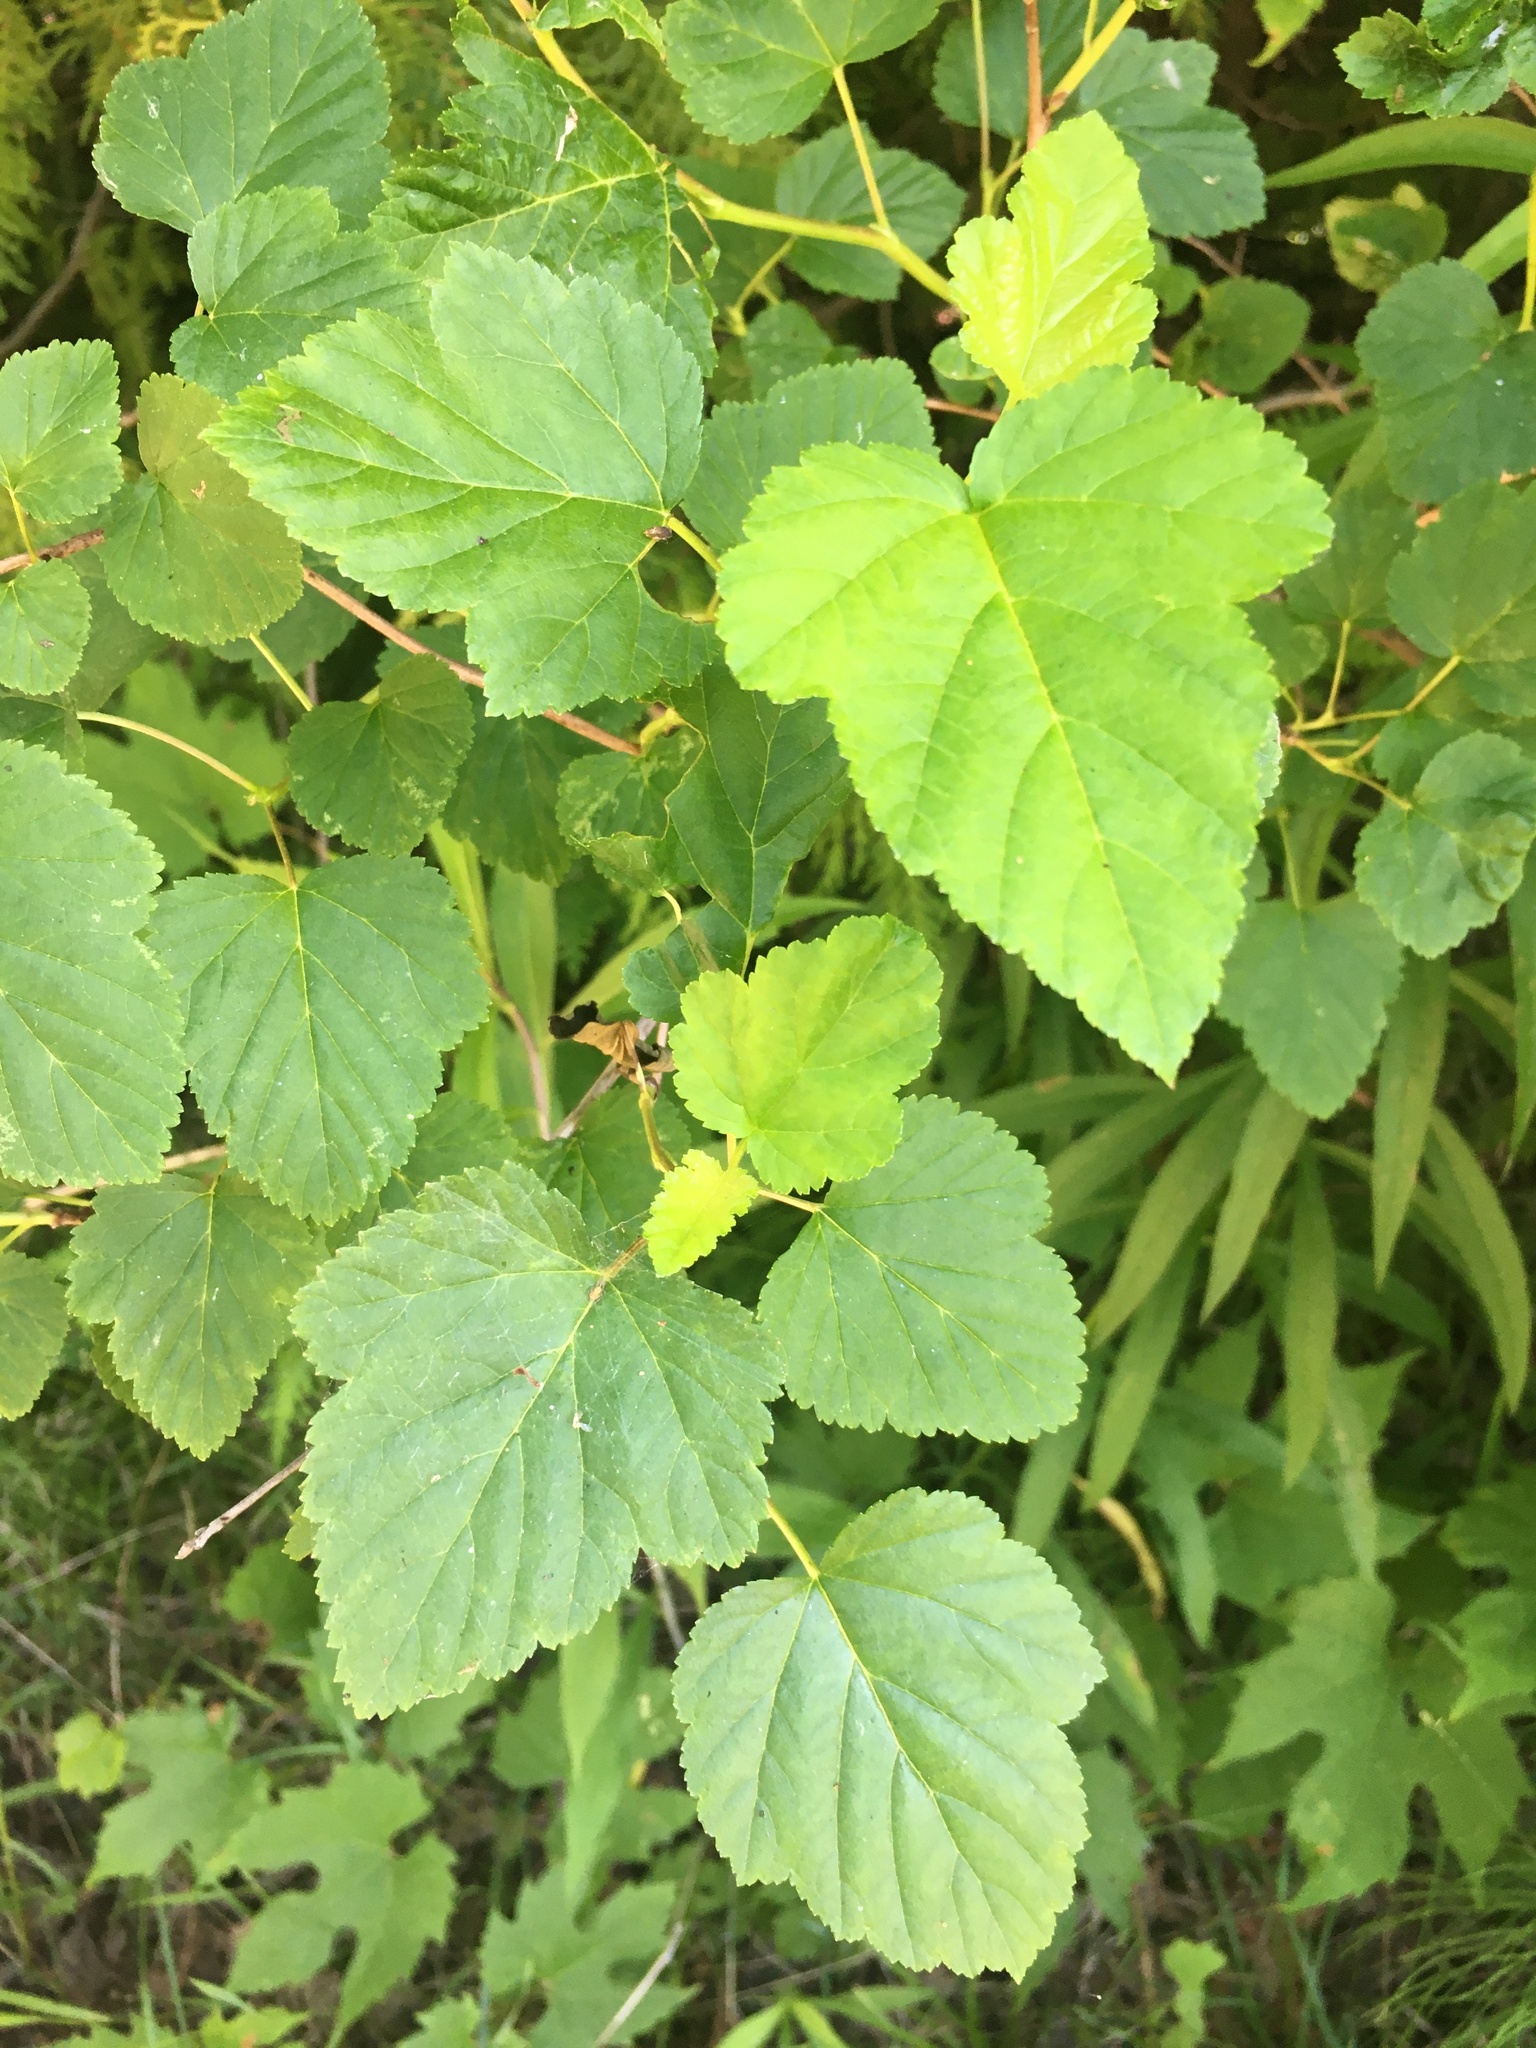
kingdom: Plantae
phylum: Tracheophyta
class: Magnoliopsida
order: Rosales
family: Rosaceae
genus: Physocarpus
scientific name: Physocarpus opulifolius
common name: Ninebark
